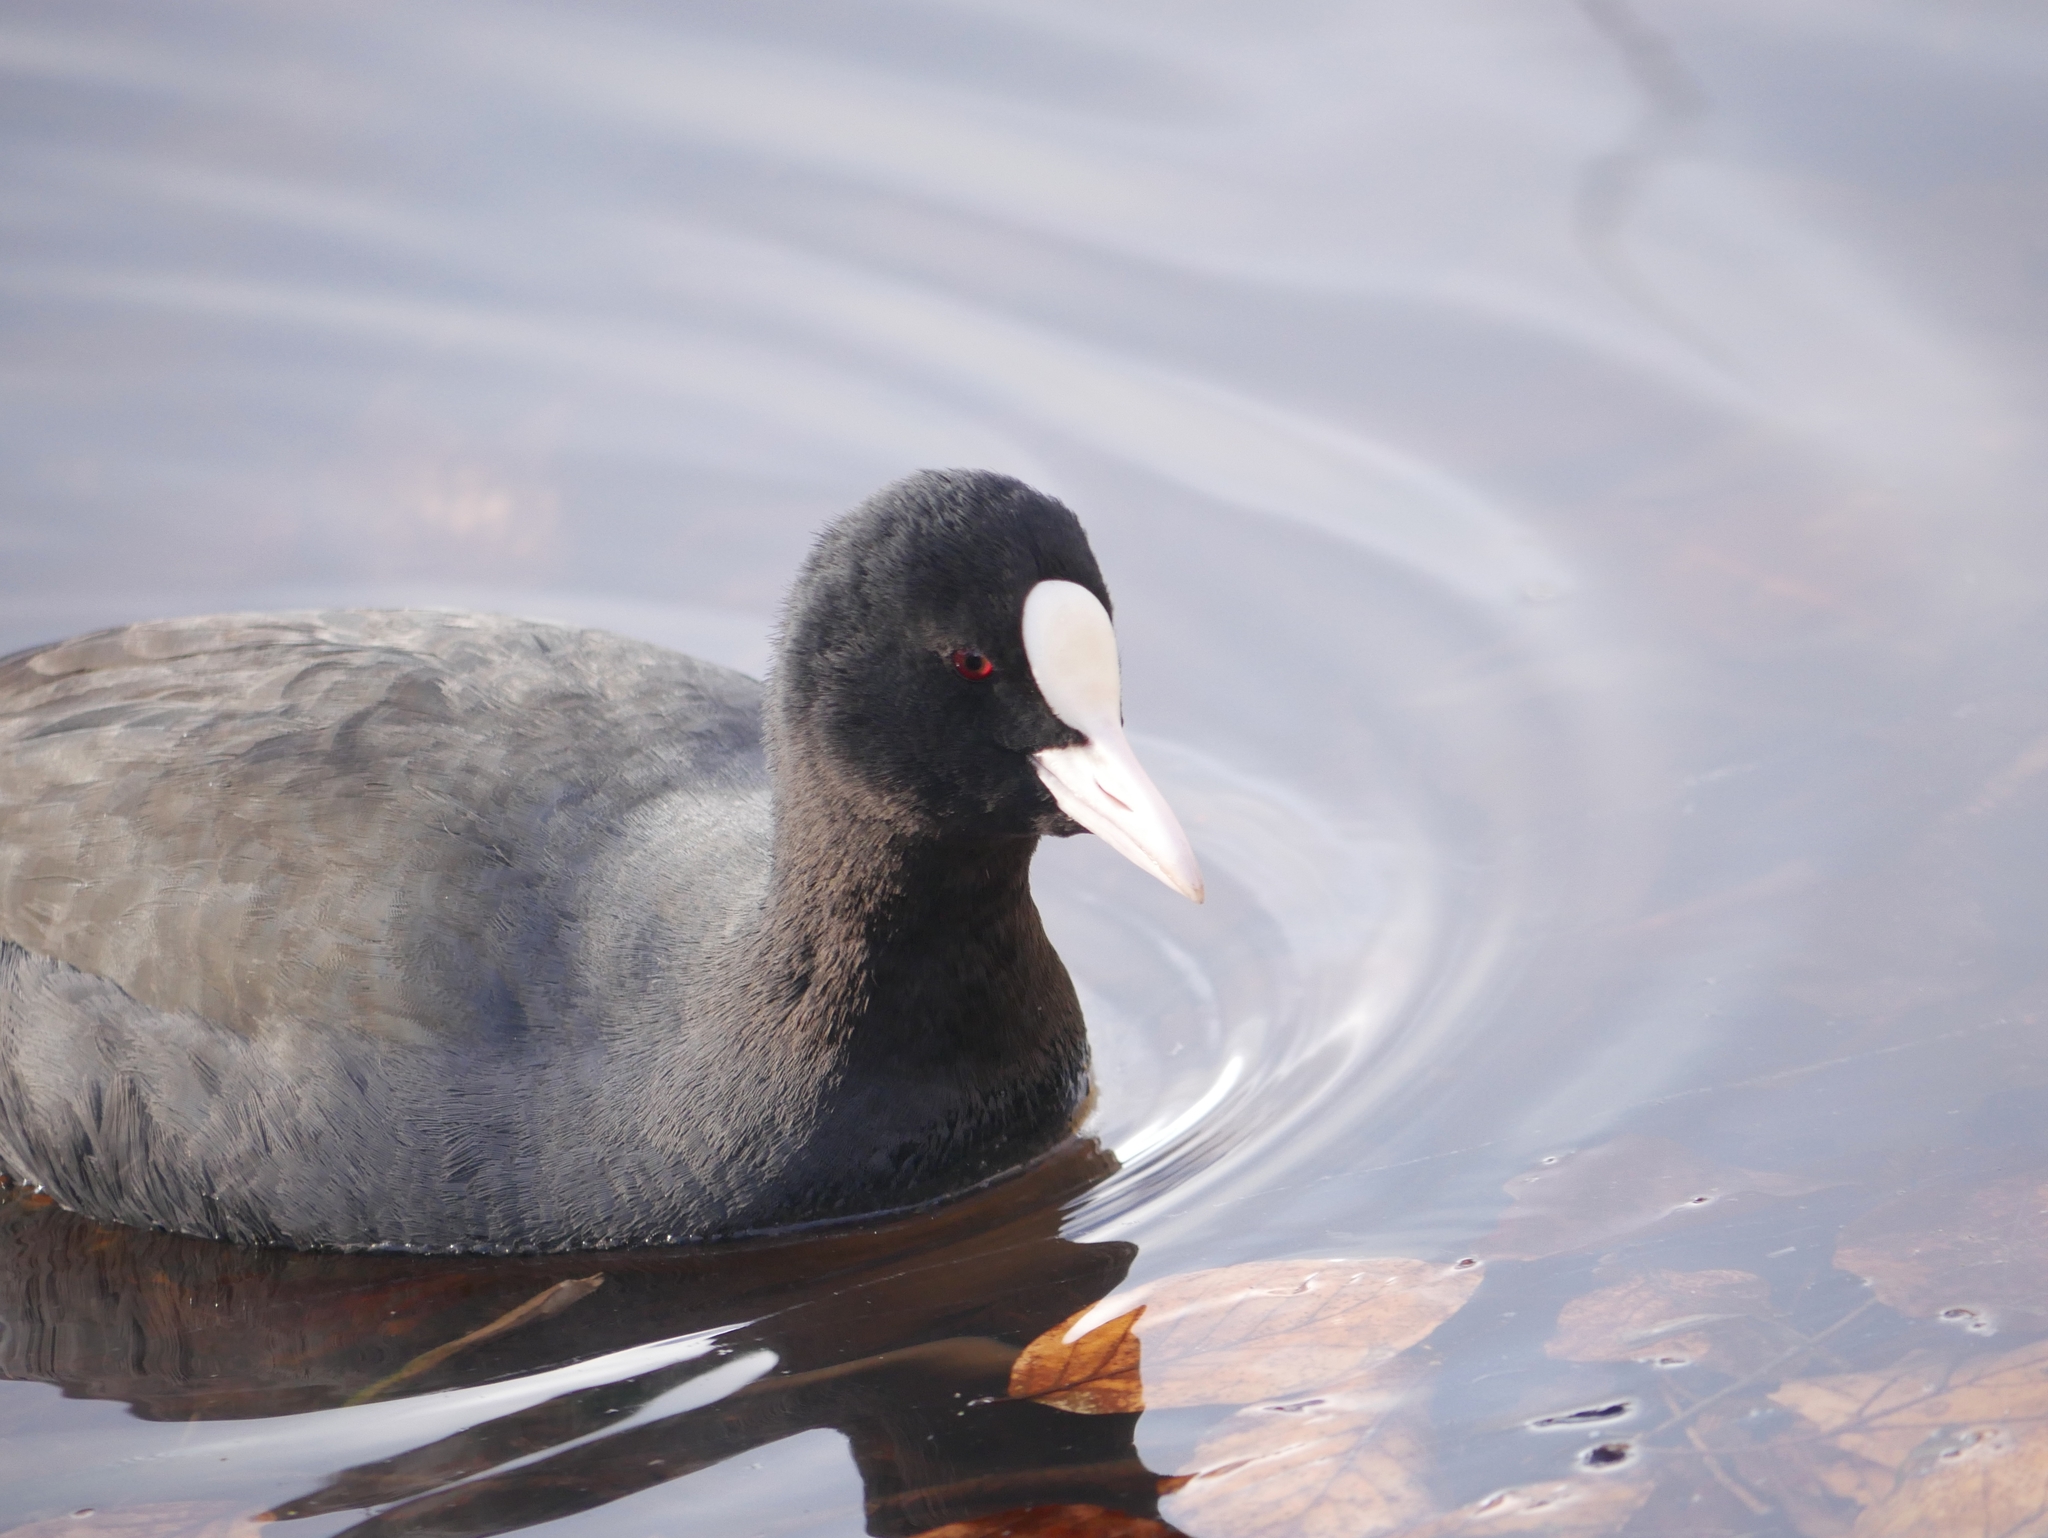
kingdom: Animalia
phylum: Chordata
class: Aves
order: Gruiformes
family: Rallidae
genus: Fulica
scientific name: Fulica atra
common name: Eurasian coot
